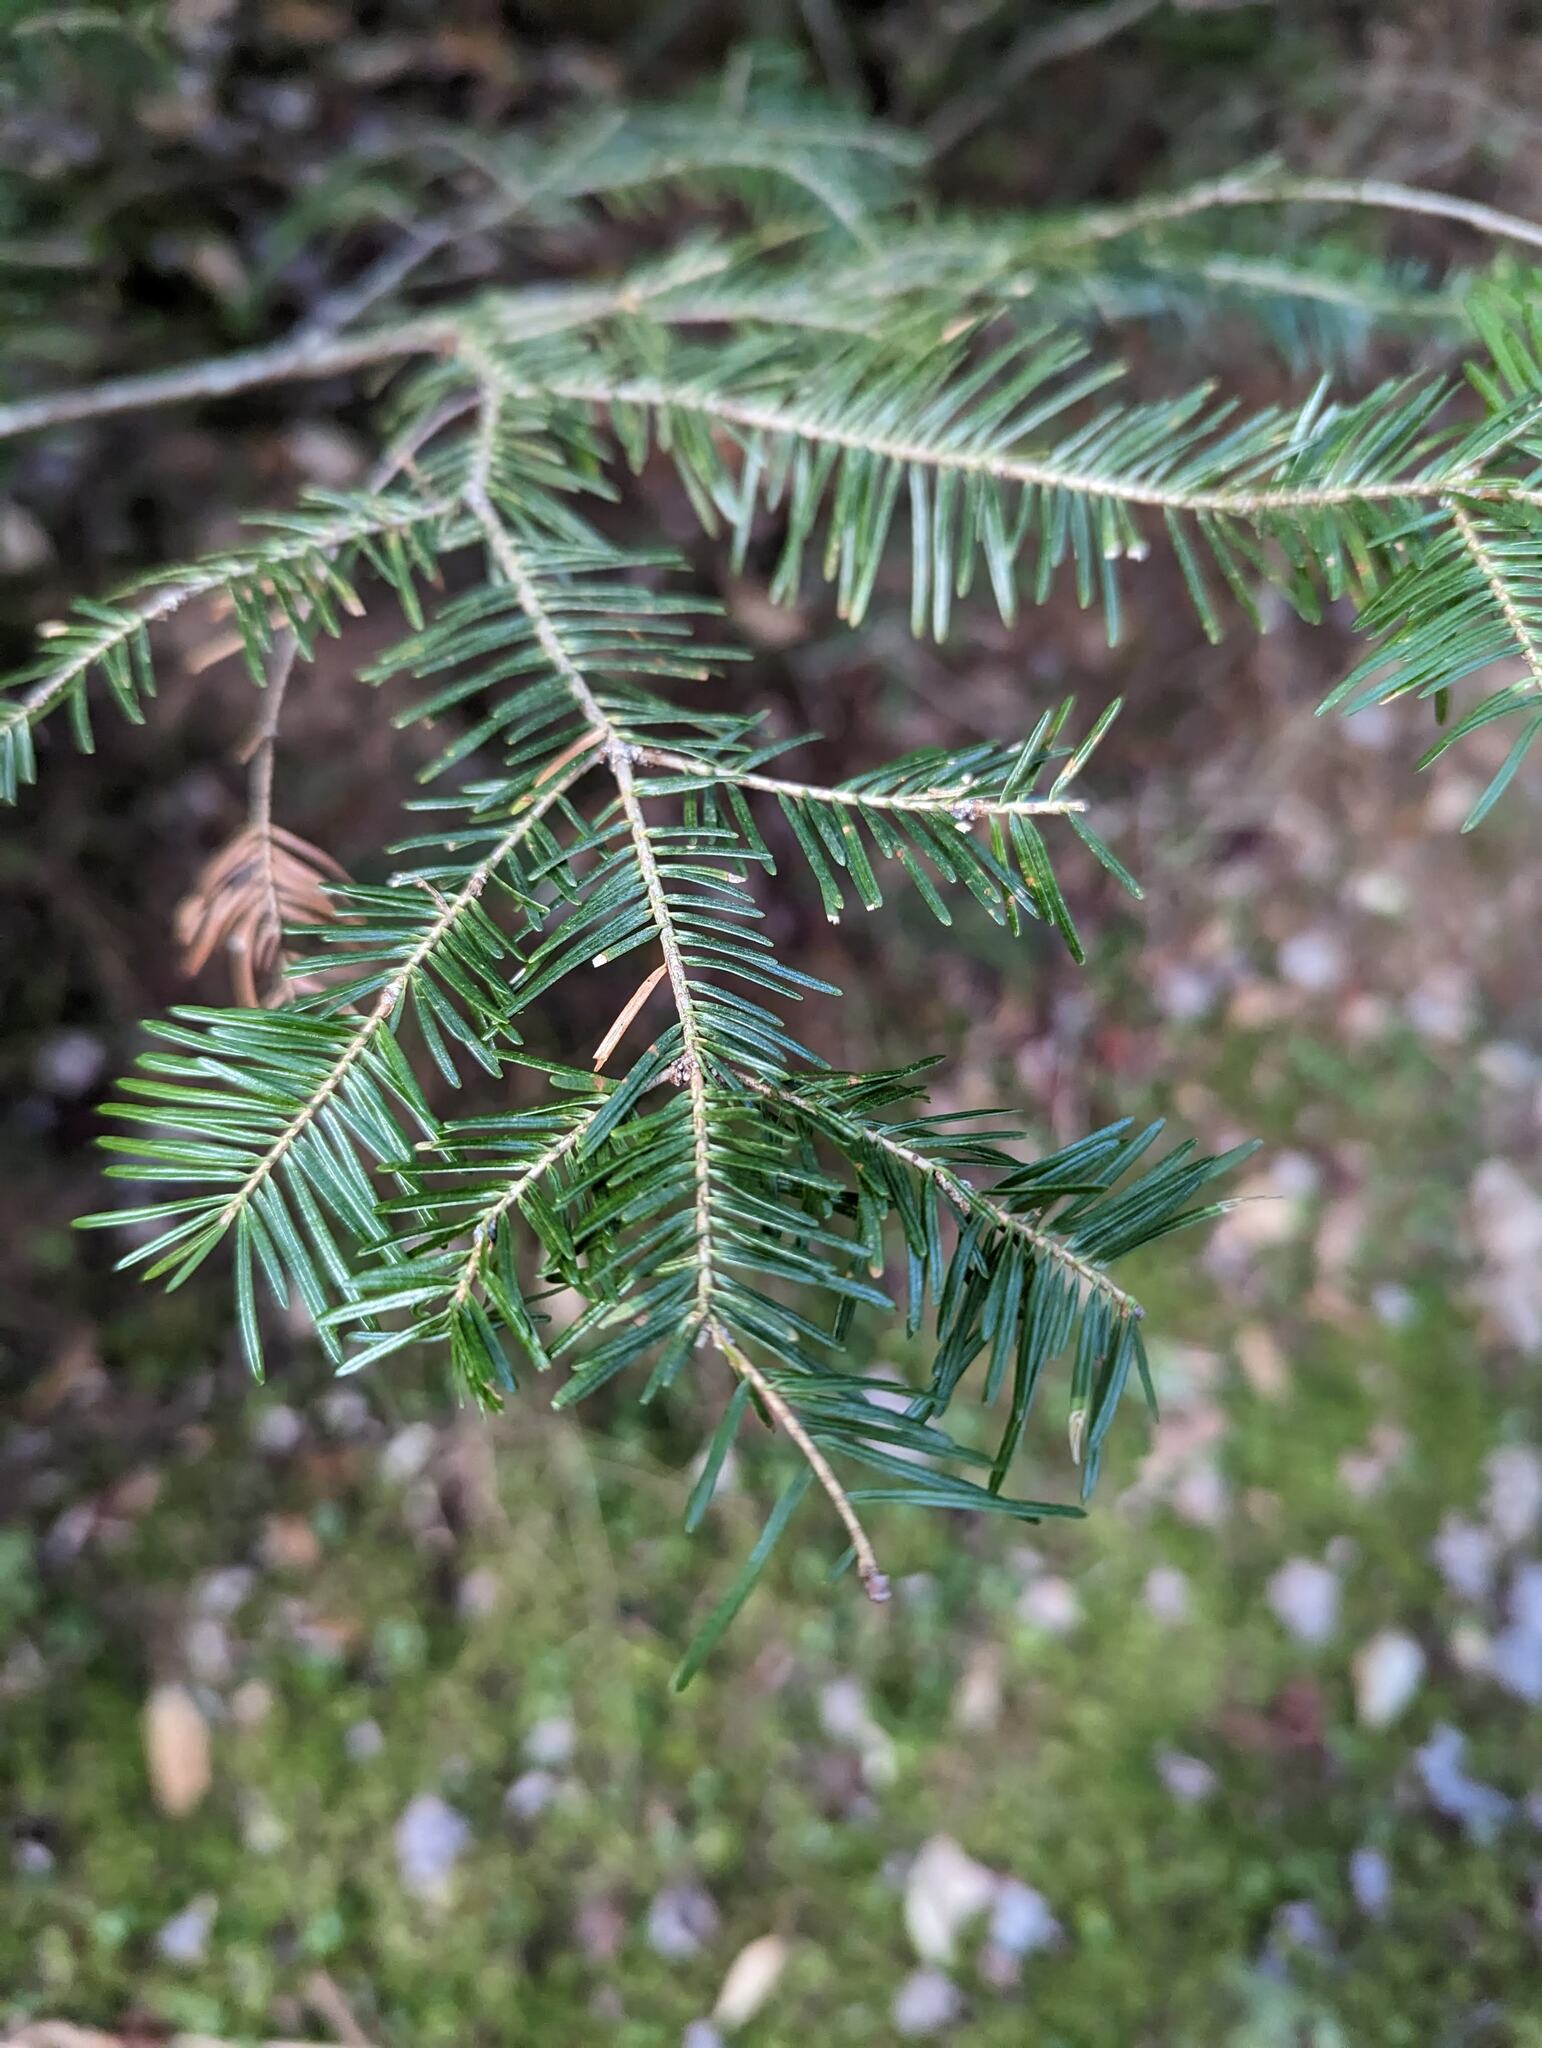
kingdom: Plantae
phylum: Tracheophyta
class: Pinopsida
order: Pinales
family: Pinaceae
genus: Abies
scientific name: Abies balsamea
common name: Balsam fir
